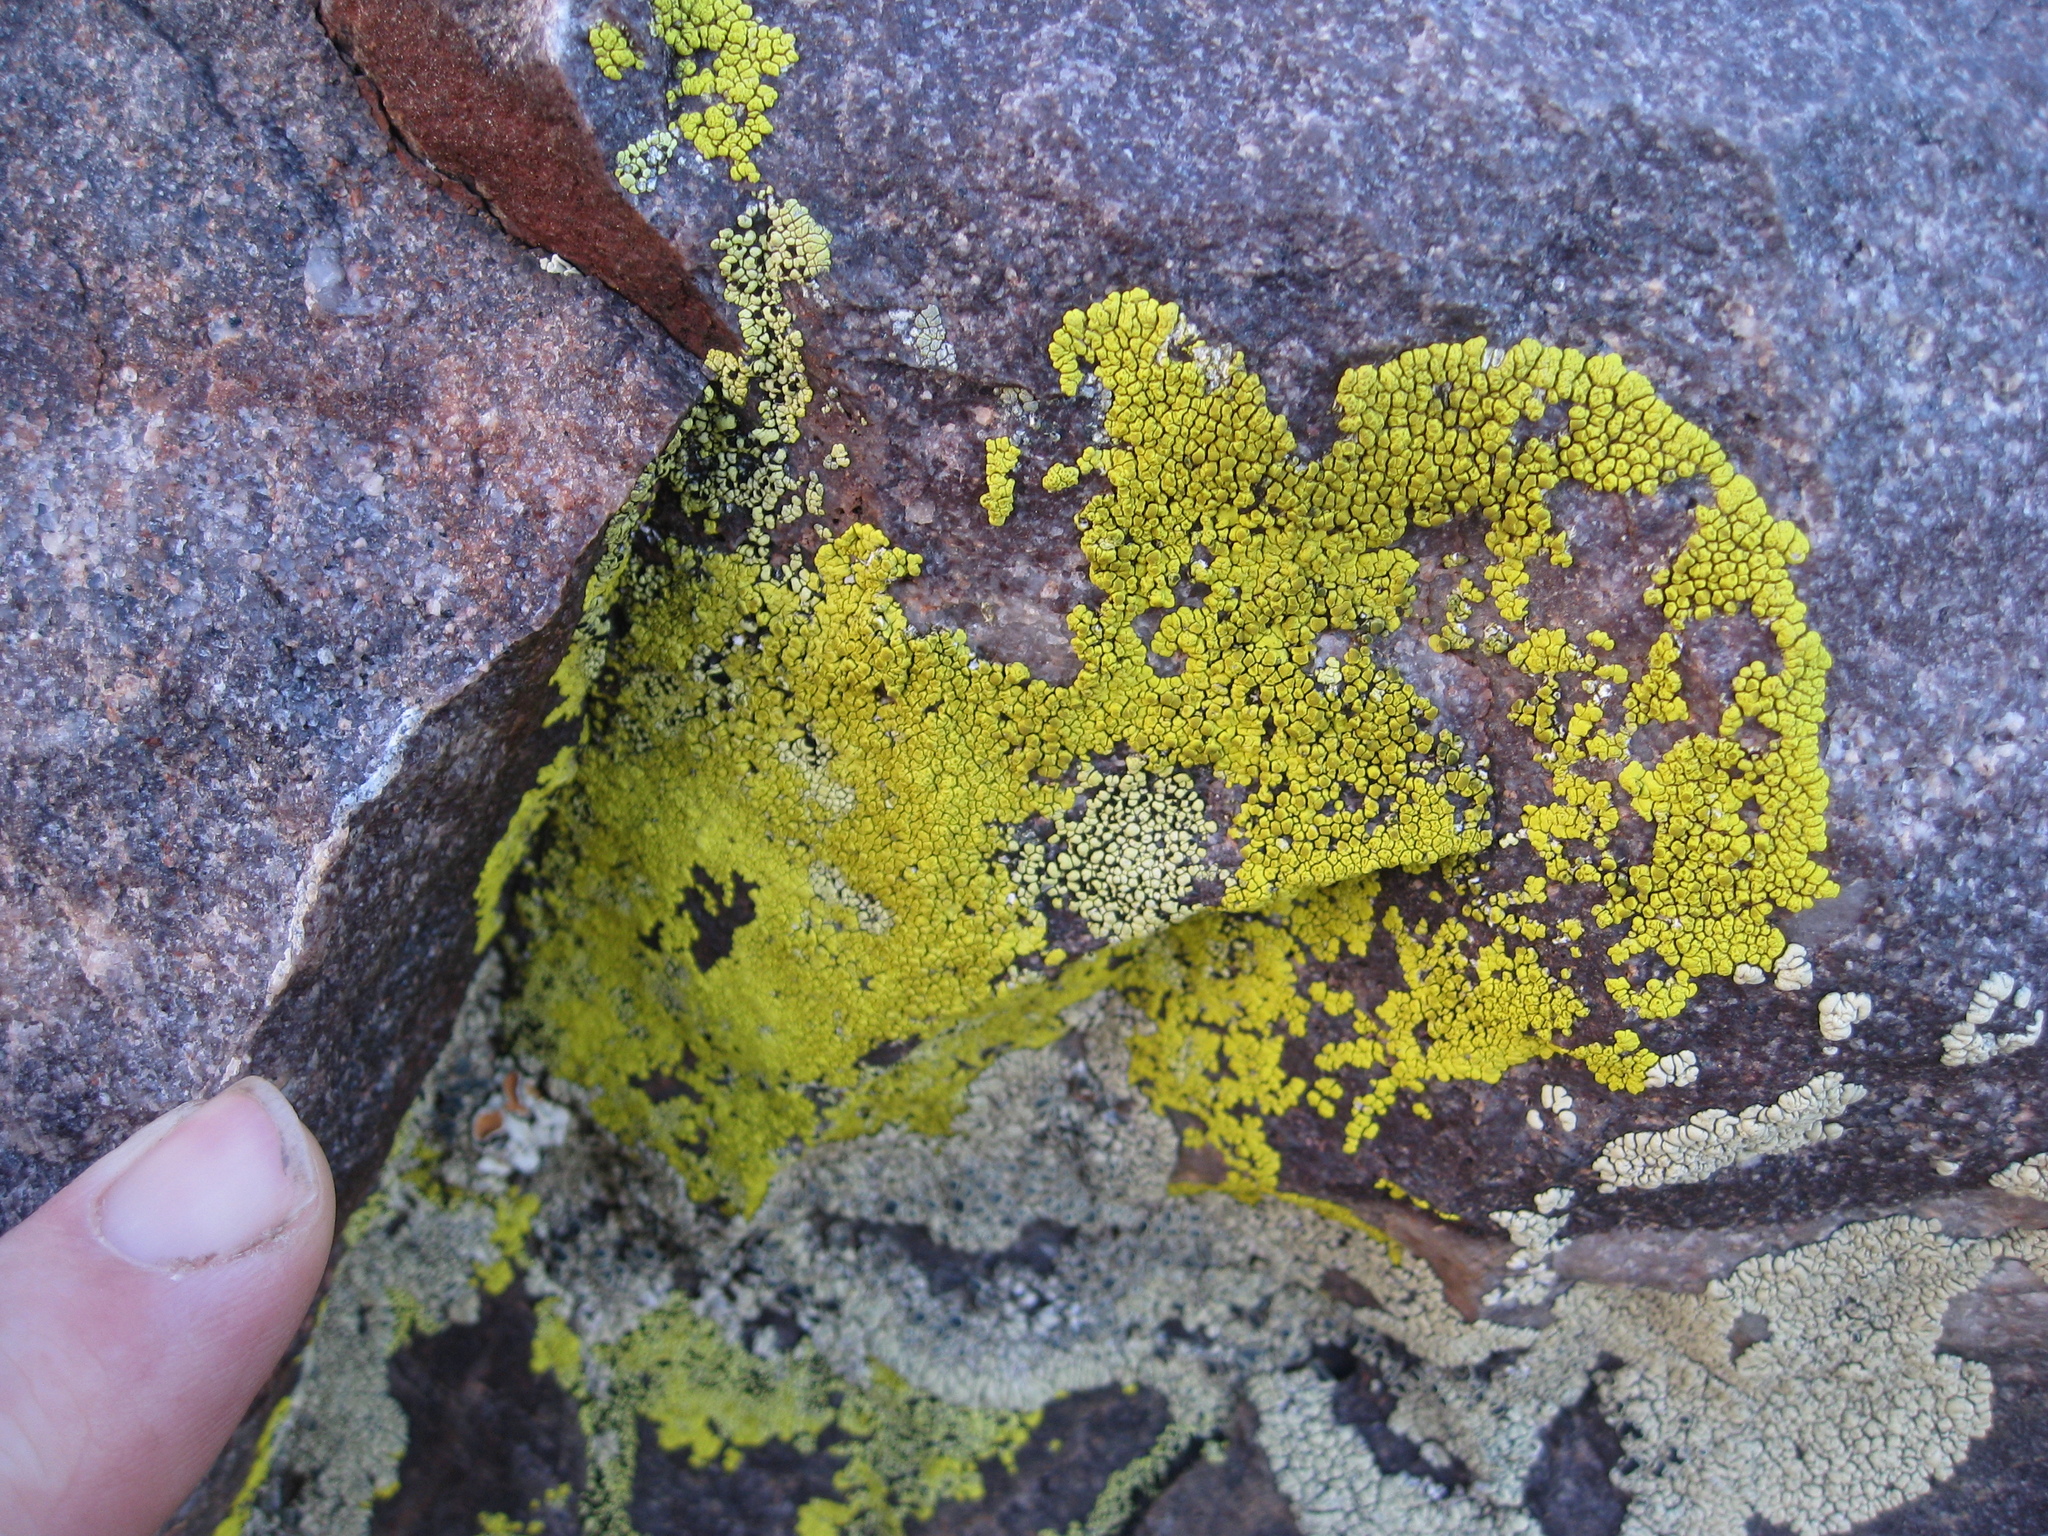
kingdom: Fungi
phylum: Ascomycota
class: Lecanoromycetes
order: Acarosporales
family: Acarosporaceae
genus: Pleopsidium
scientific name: Pleopsidium oxytonum
